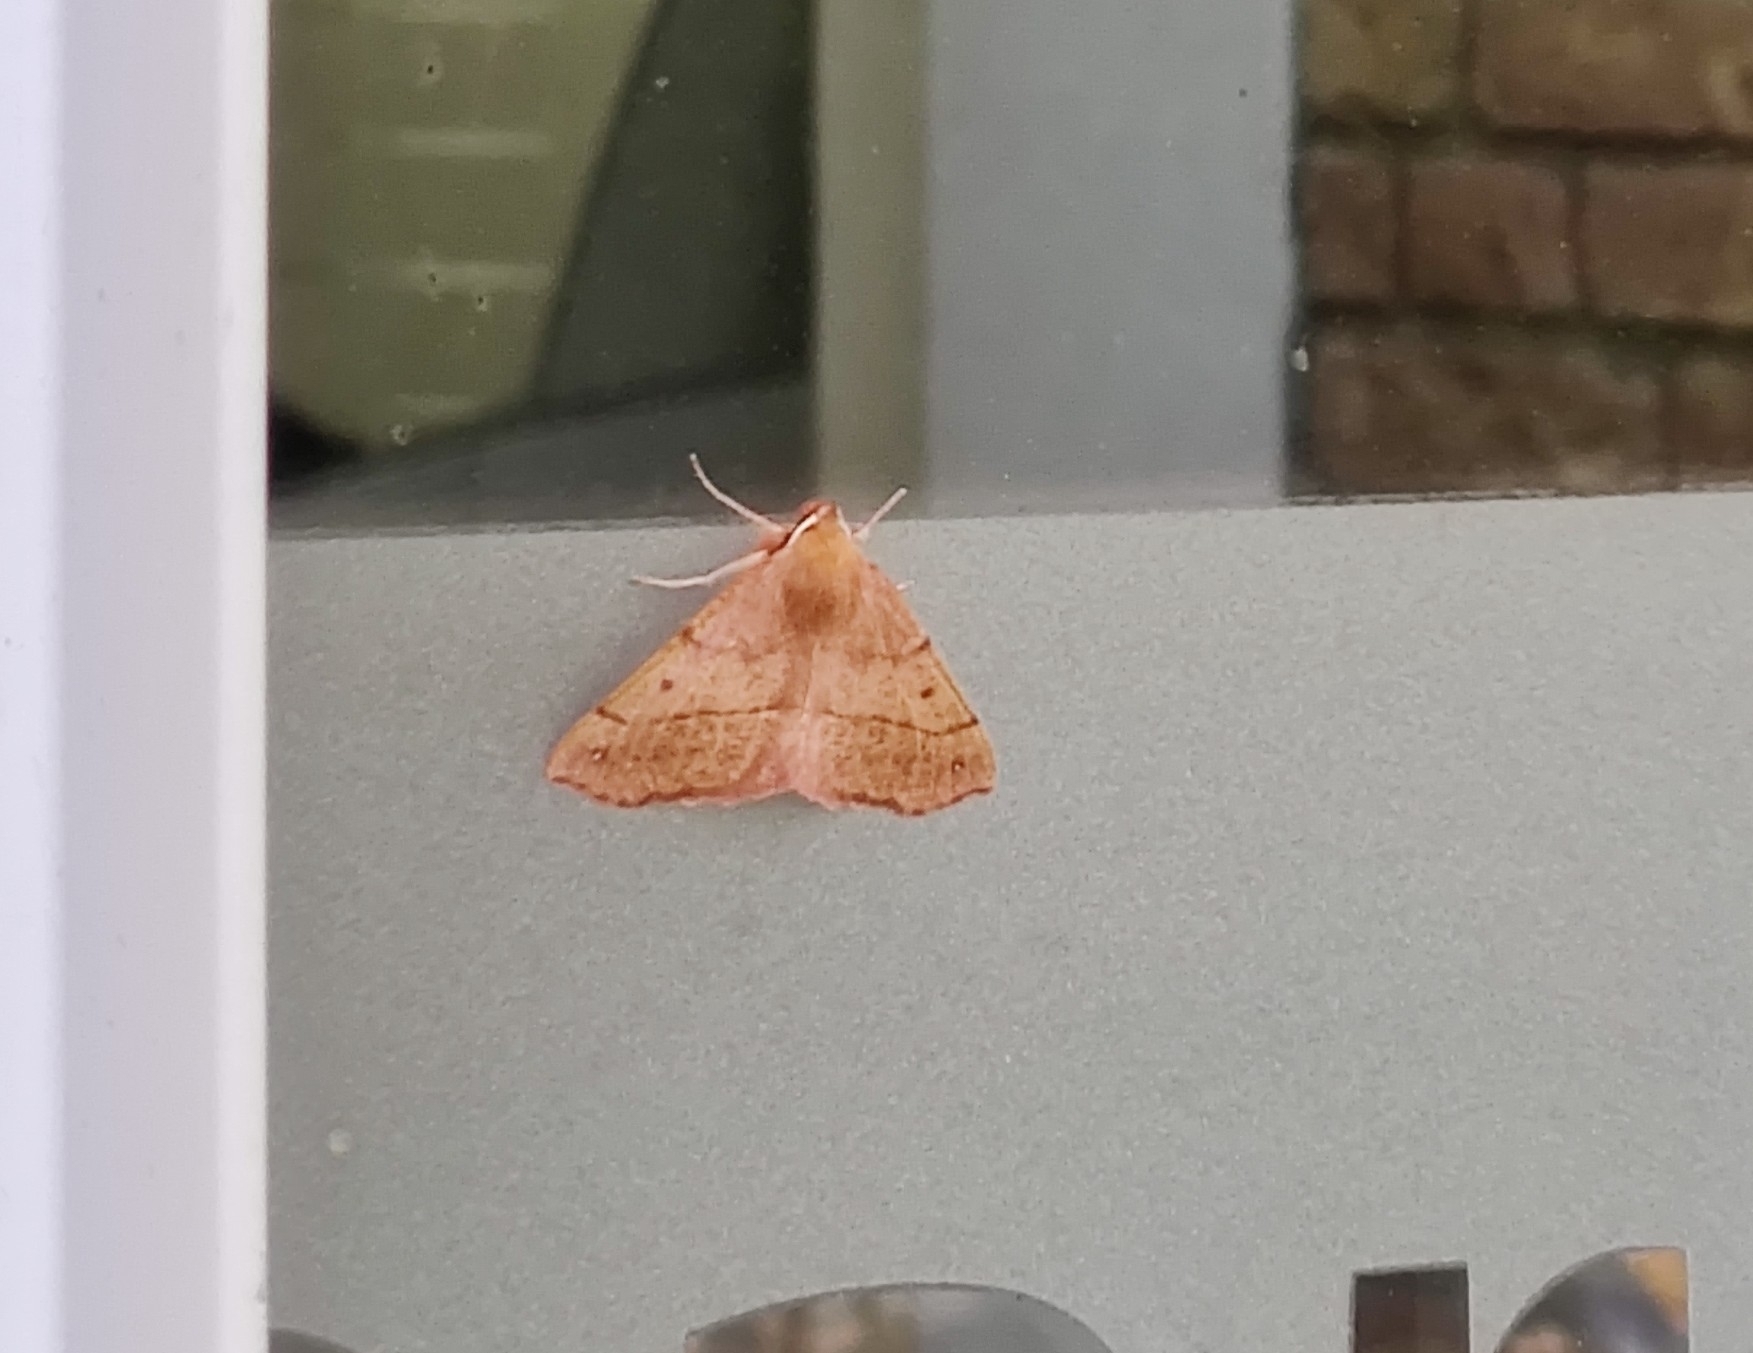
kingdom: Animalia
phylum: Arthropoda
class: Insecta
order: Lepidoptera
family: Geometridae
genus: Colotois
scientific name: Colotois pennaria
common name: Feathered thorn
